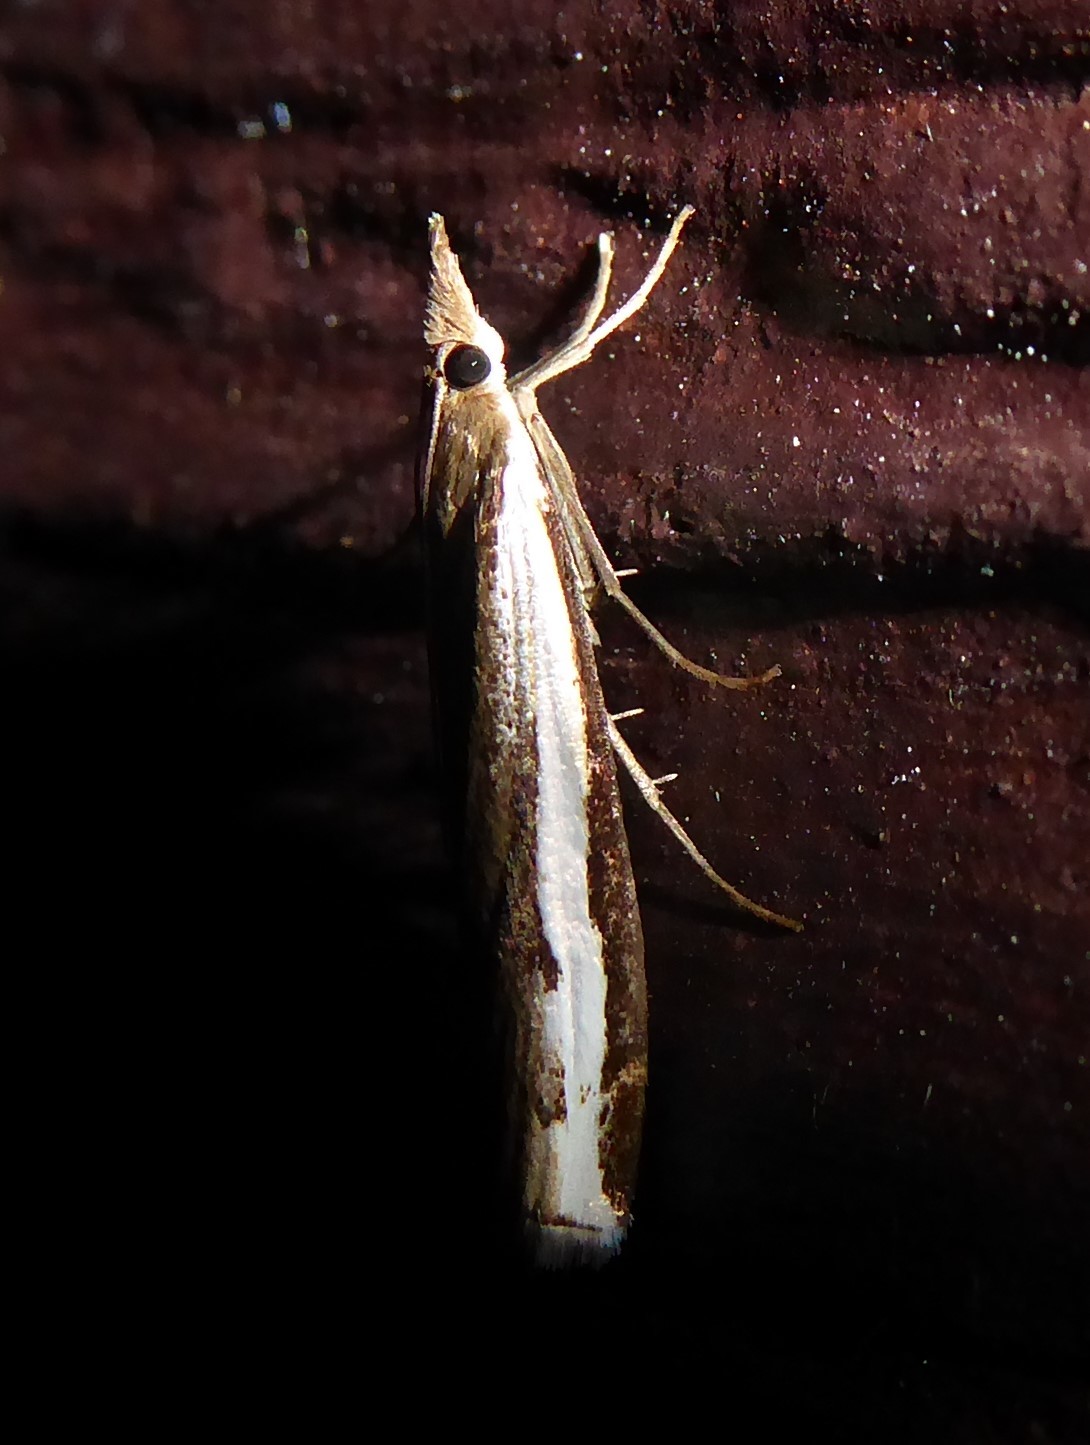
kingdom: Animalia
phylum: Arthropoda
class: Insecta
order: Lepidoptera
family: Crambidae
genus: Orocrambus
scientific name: Orocrambus flexuosellus
